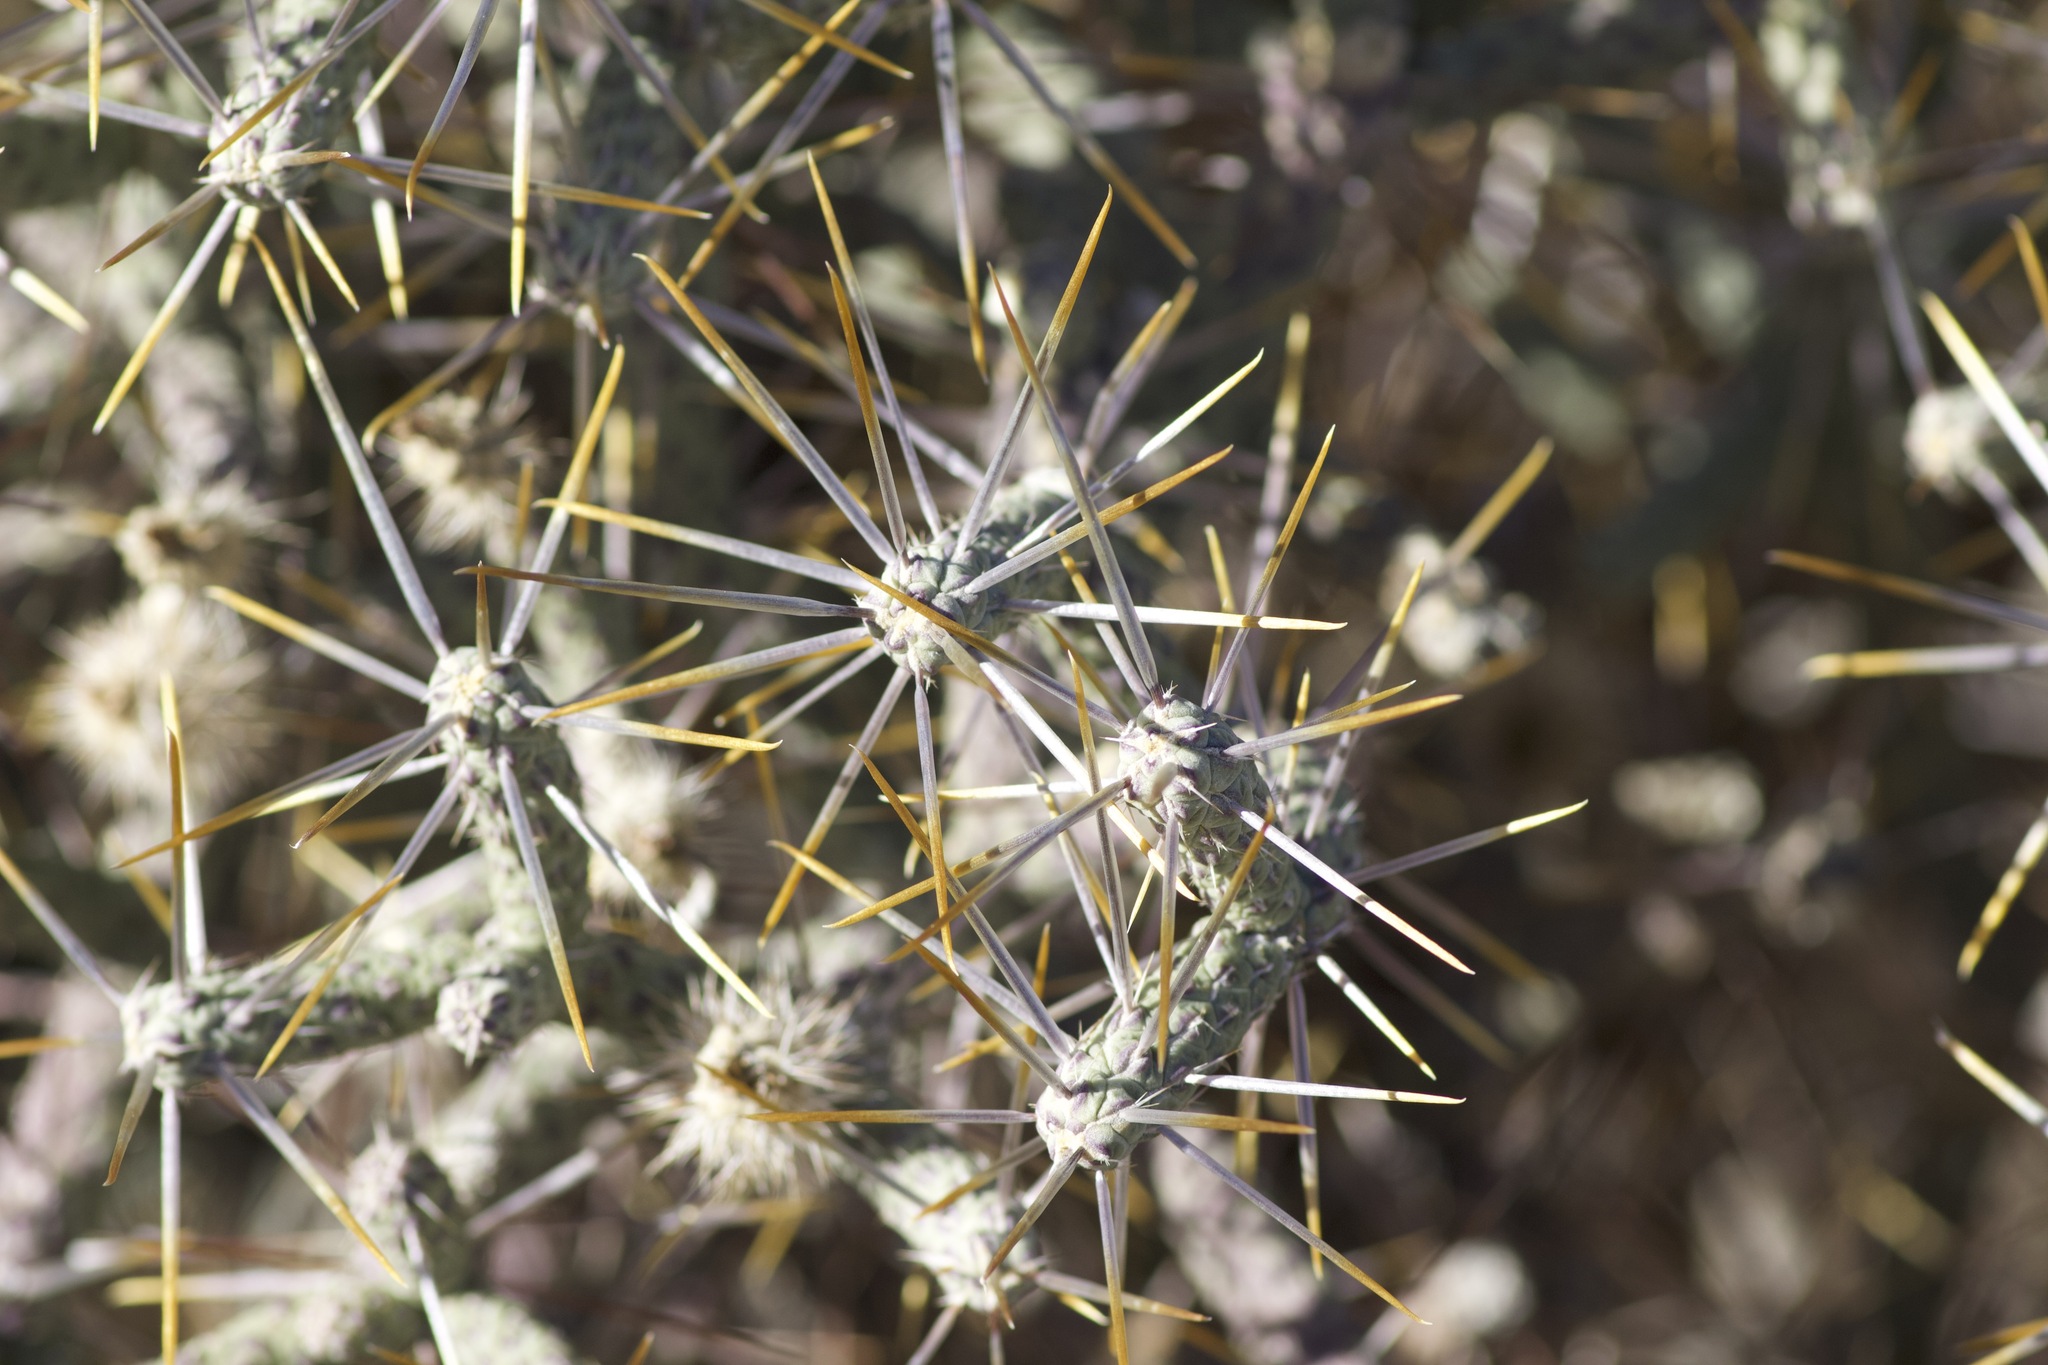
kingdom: Plantae
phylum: Tracheophyta
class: Magnoliopsida
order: Caryophyllales
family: Cactaceae
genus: Cylindropuntia
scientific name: Cylindropuntia ramosissima
